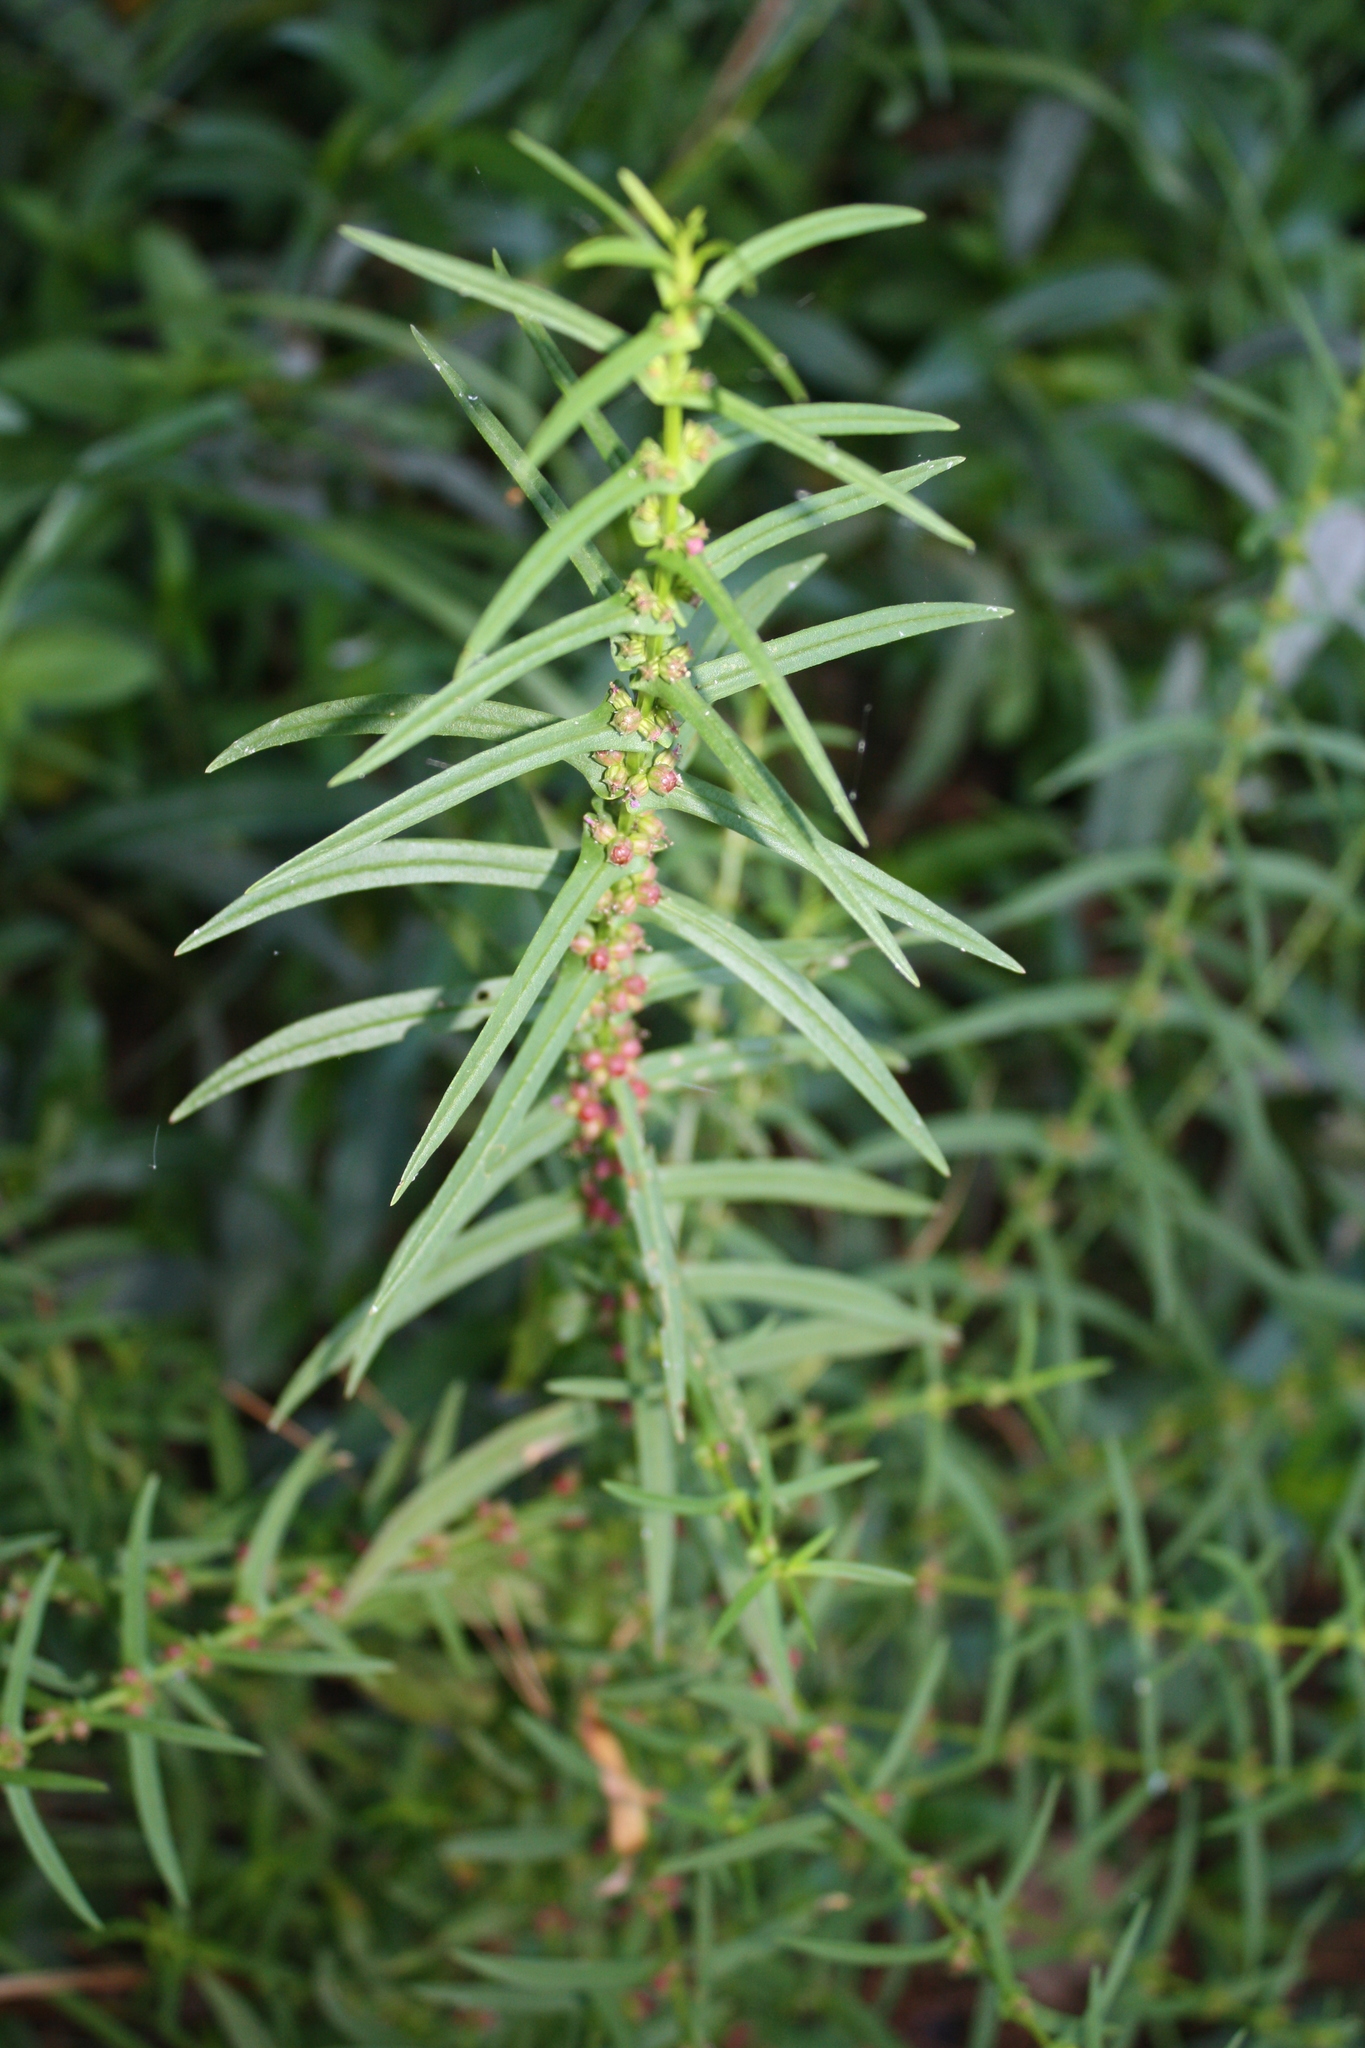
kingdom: Plantae
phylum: Tracheophyta
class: Magnoliopsida
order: Myrtales
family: Lythraceae
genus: Ammannia
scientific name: Ammannia coccinea
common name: Valley redstem
